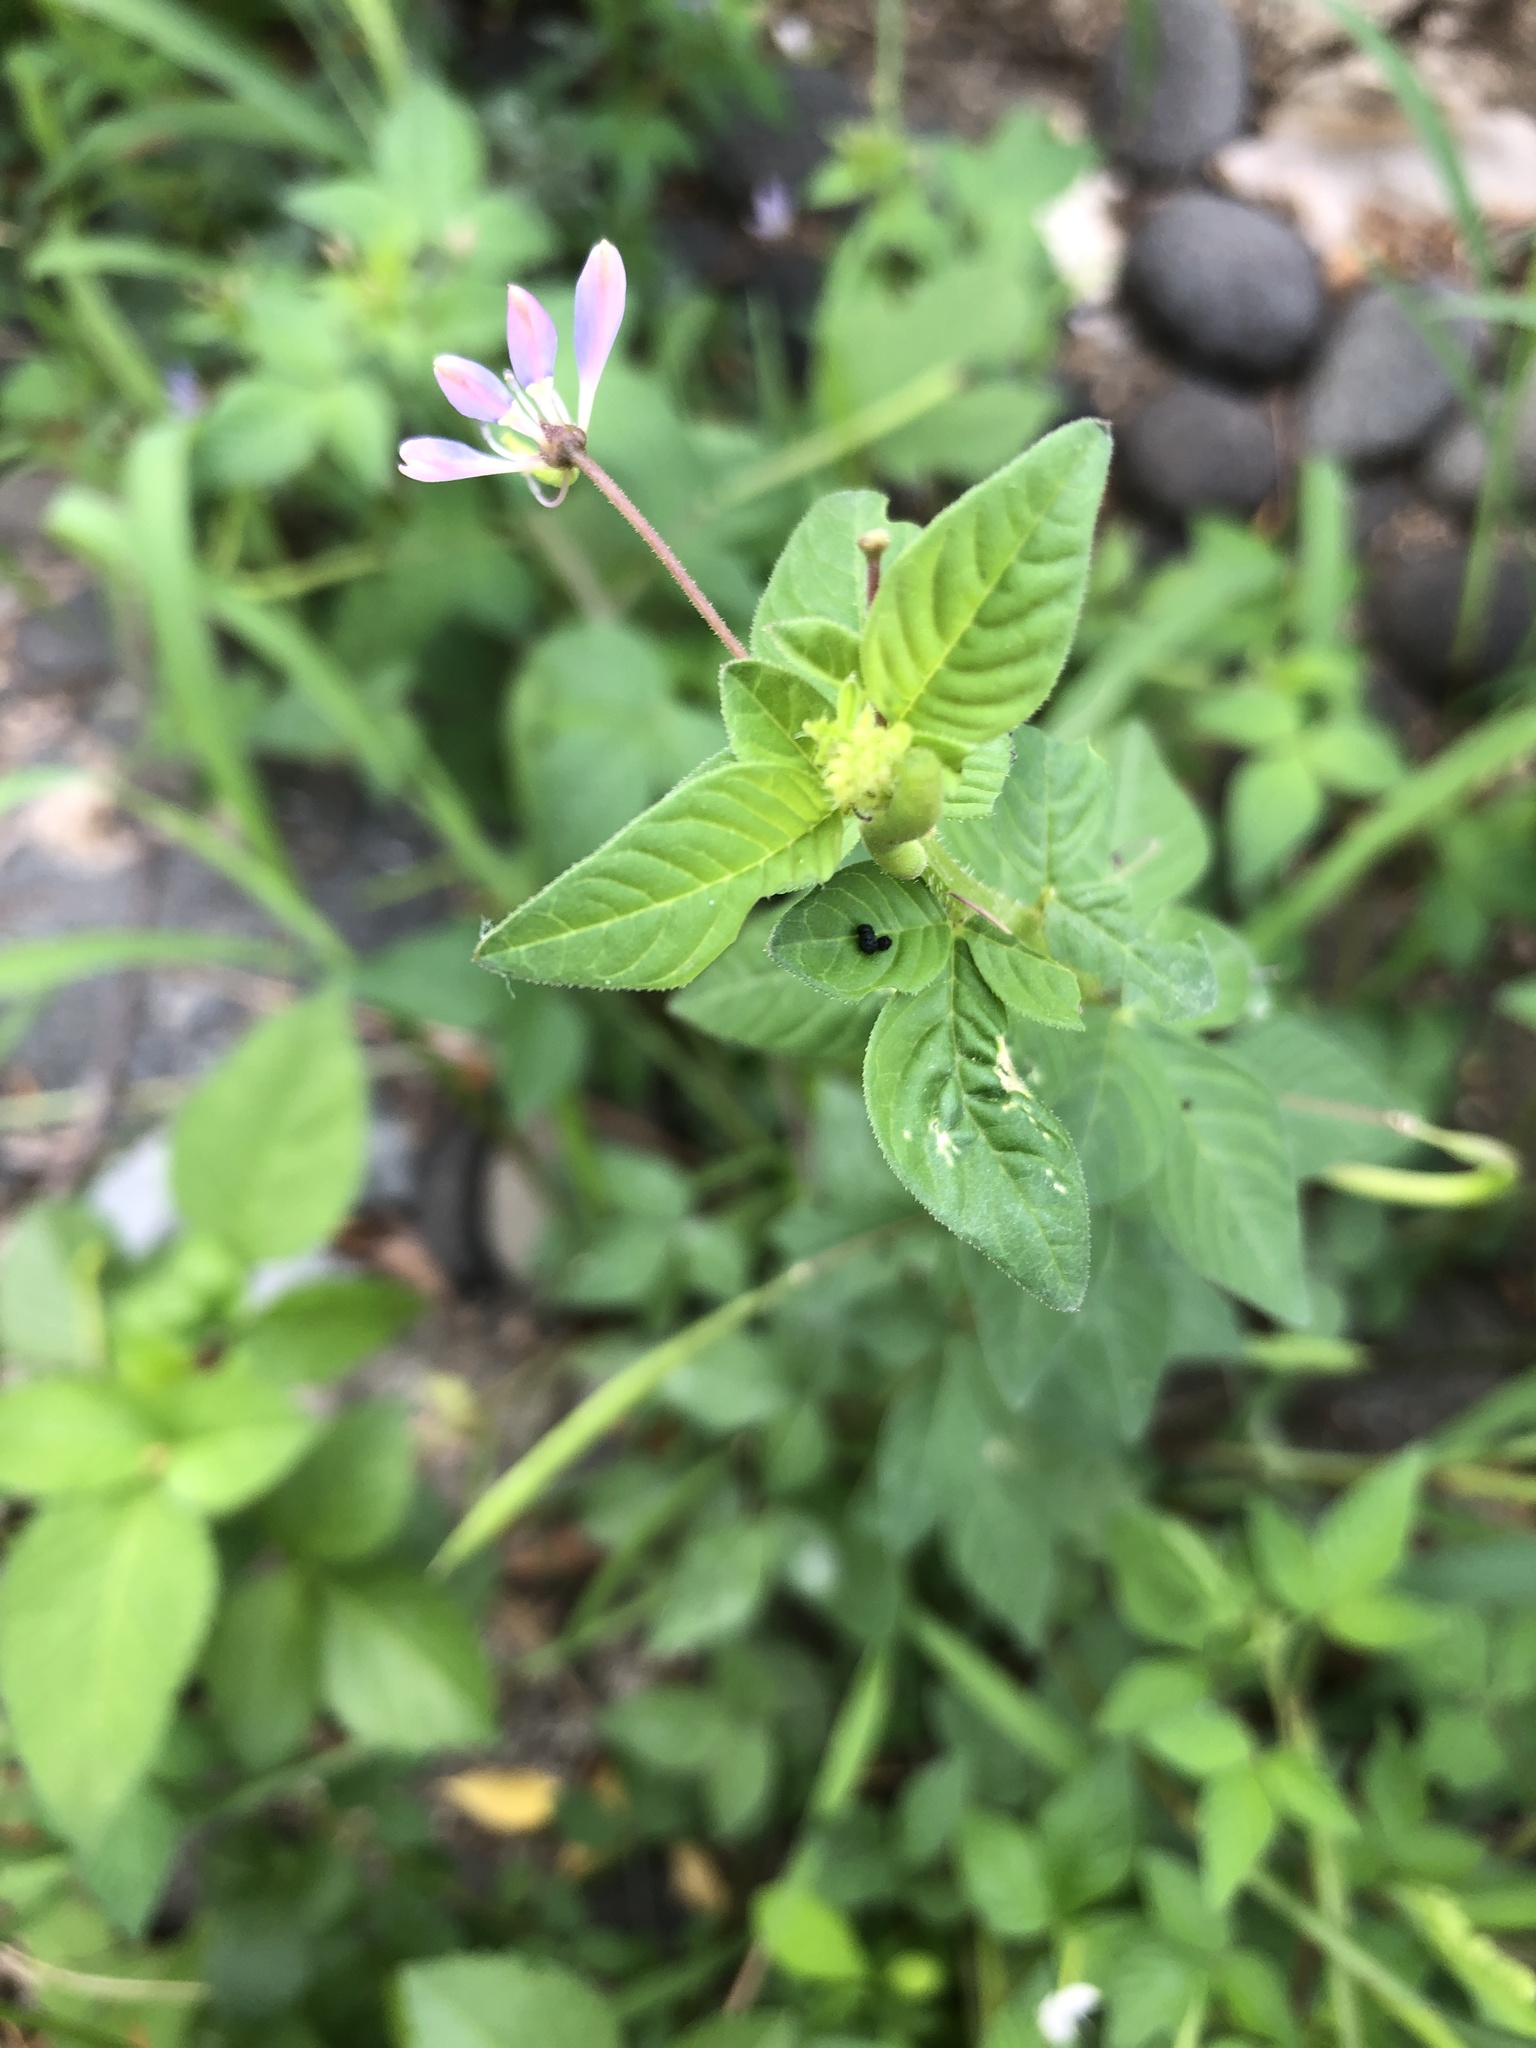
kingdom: Plantae
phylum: Tracheophyta
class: Magnoliopsida
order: Brassicales
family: Cleomaceae
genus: Sieruela
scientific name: Sieruela rutidosperma
